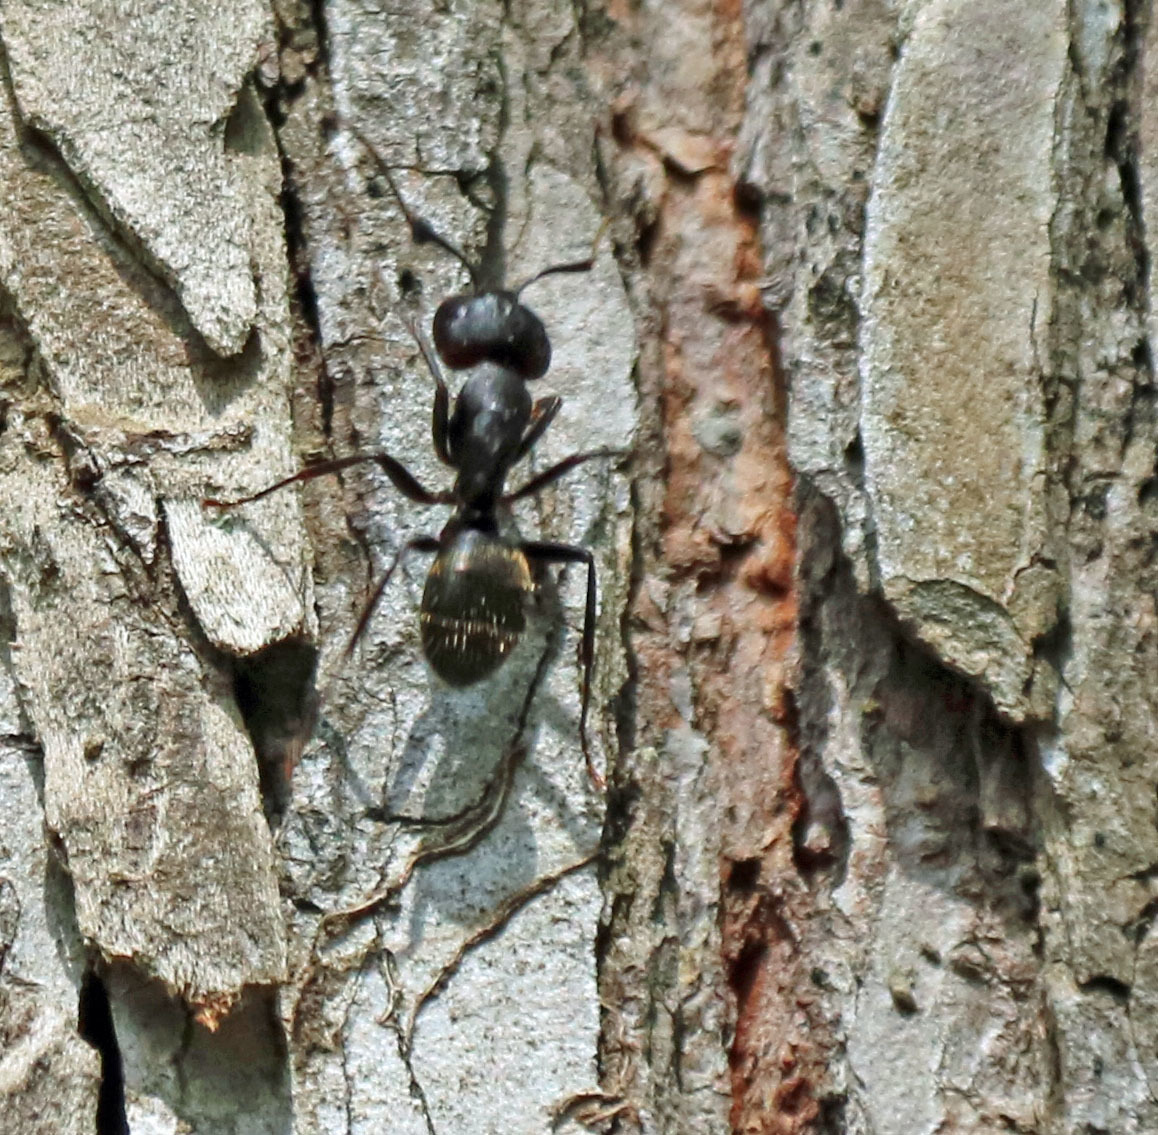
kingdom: Animalia
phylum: Arthropoda
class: Insecta
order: Hymenoptera
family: Formicidae
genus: Camponotus
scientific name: Camponotus pennsylvanicus
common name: Black carpenter ant
